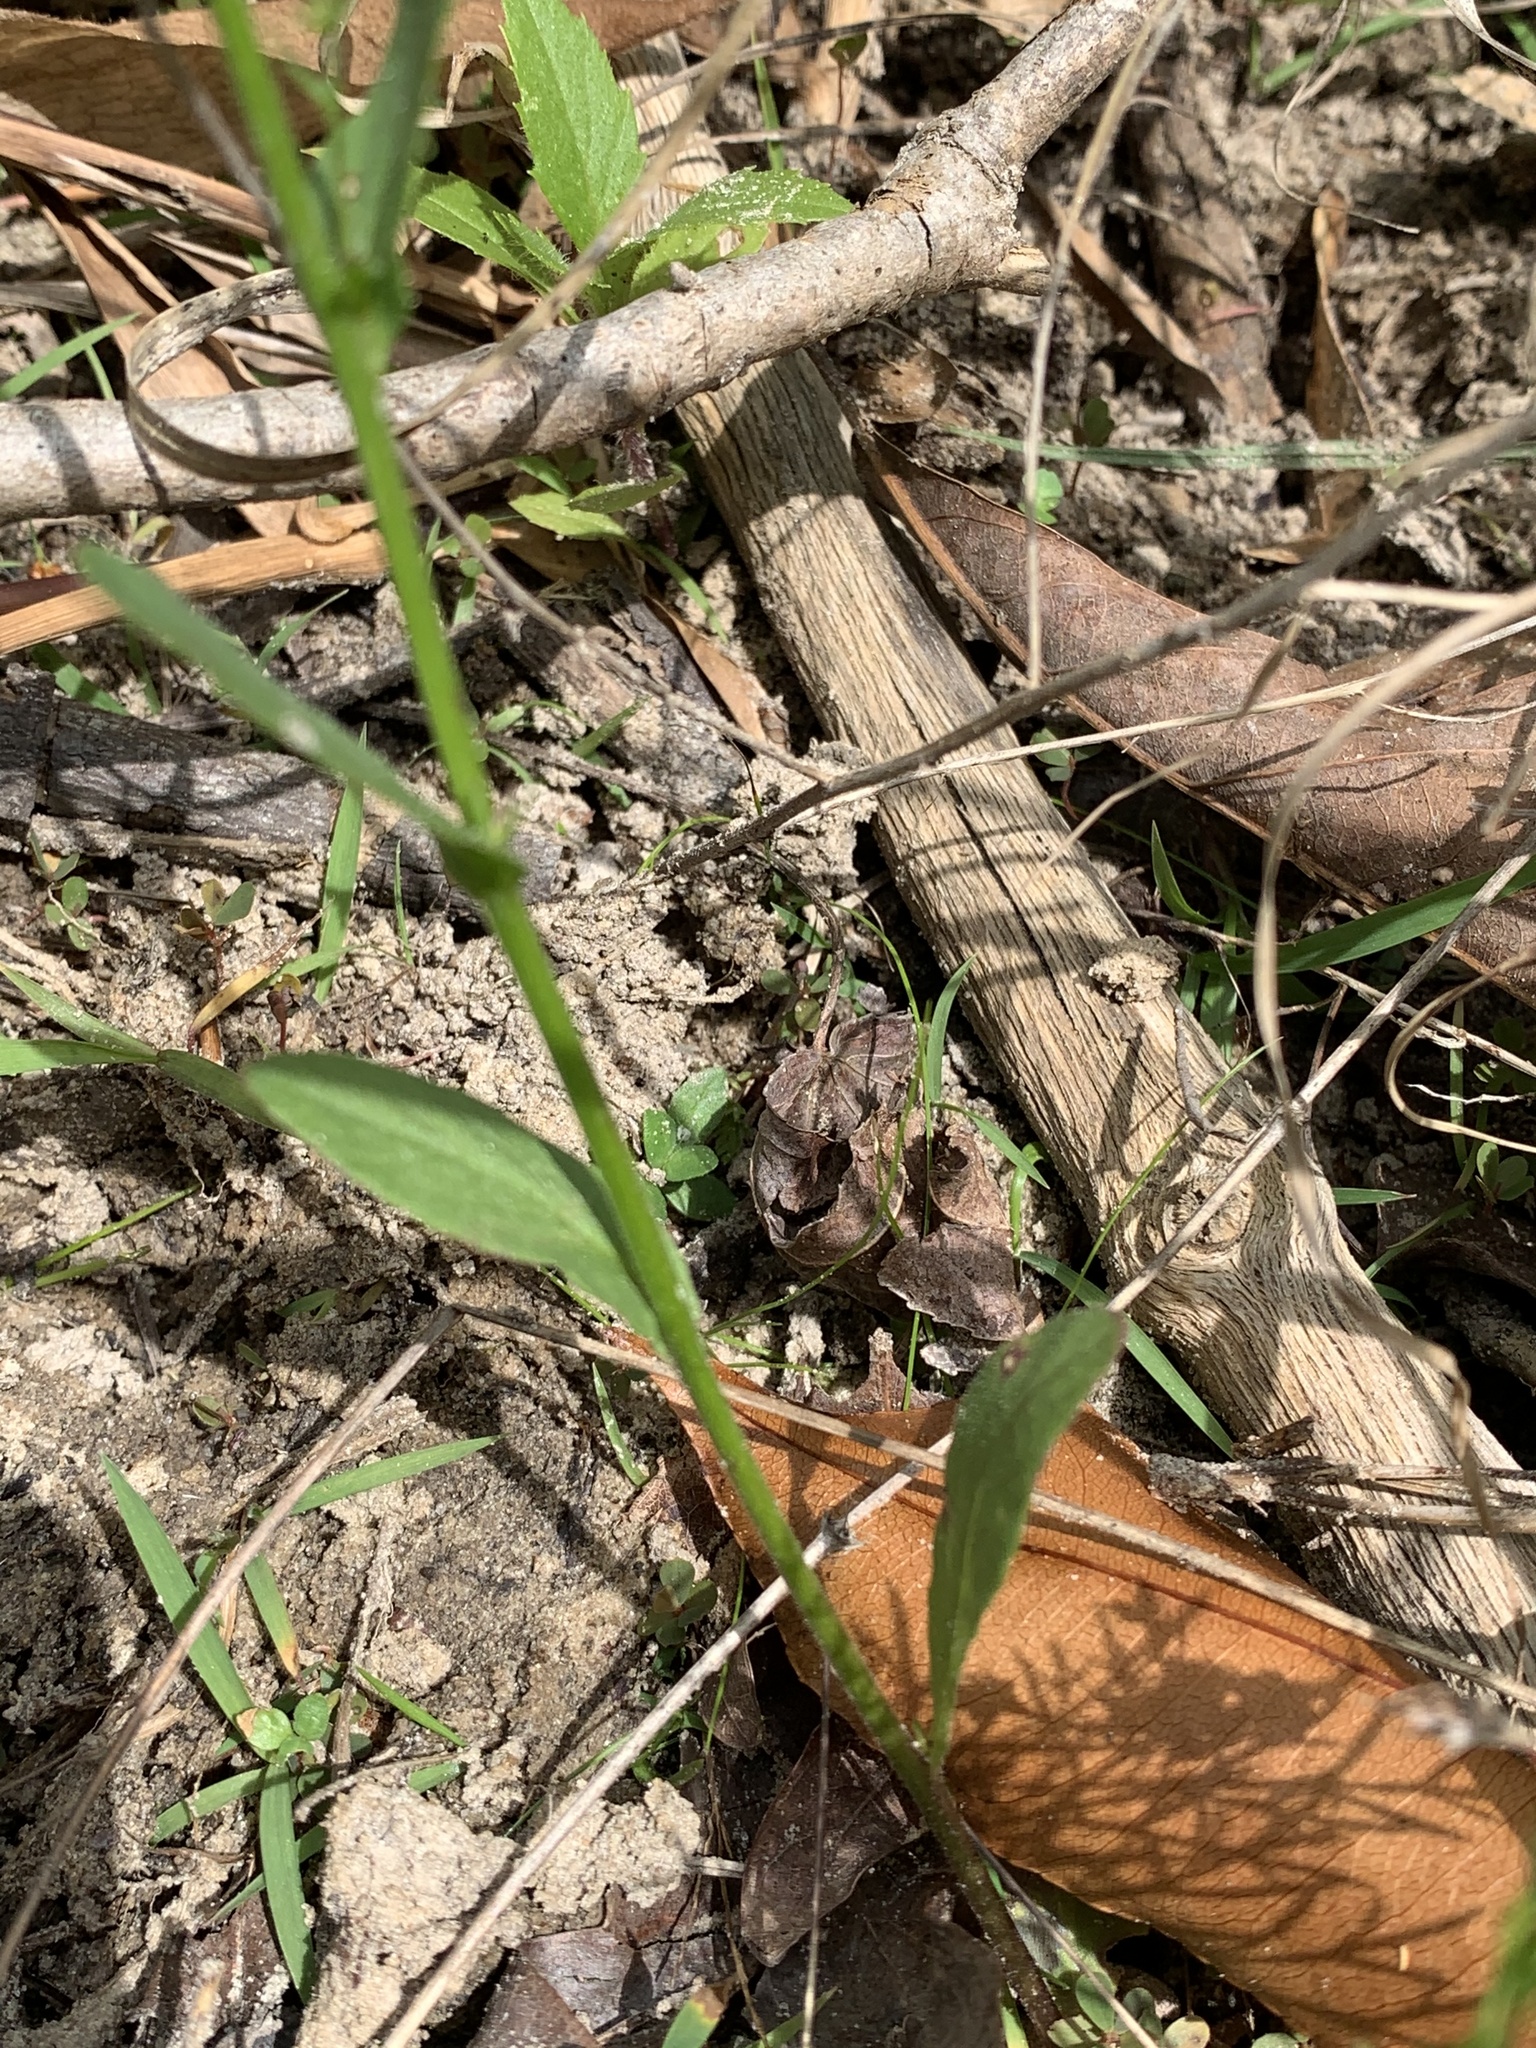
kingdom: Plantae
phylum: Tracheophyta
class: Magnoliopsida
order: Asterales
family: Campanulaceae
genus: Lobelia
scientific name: Lobelia appendiculata
